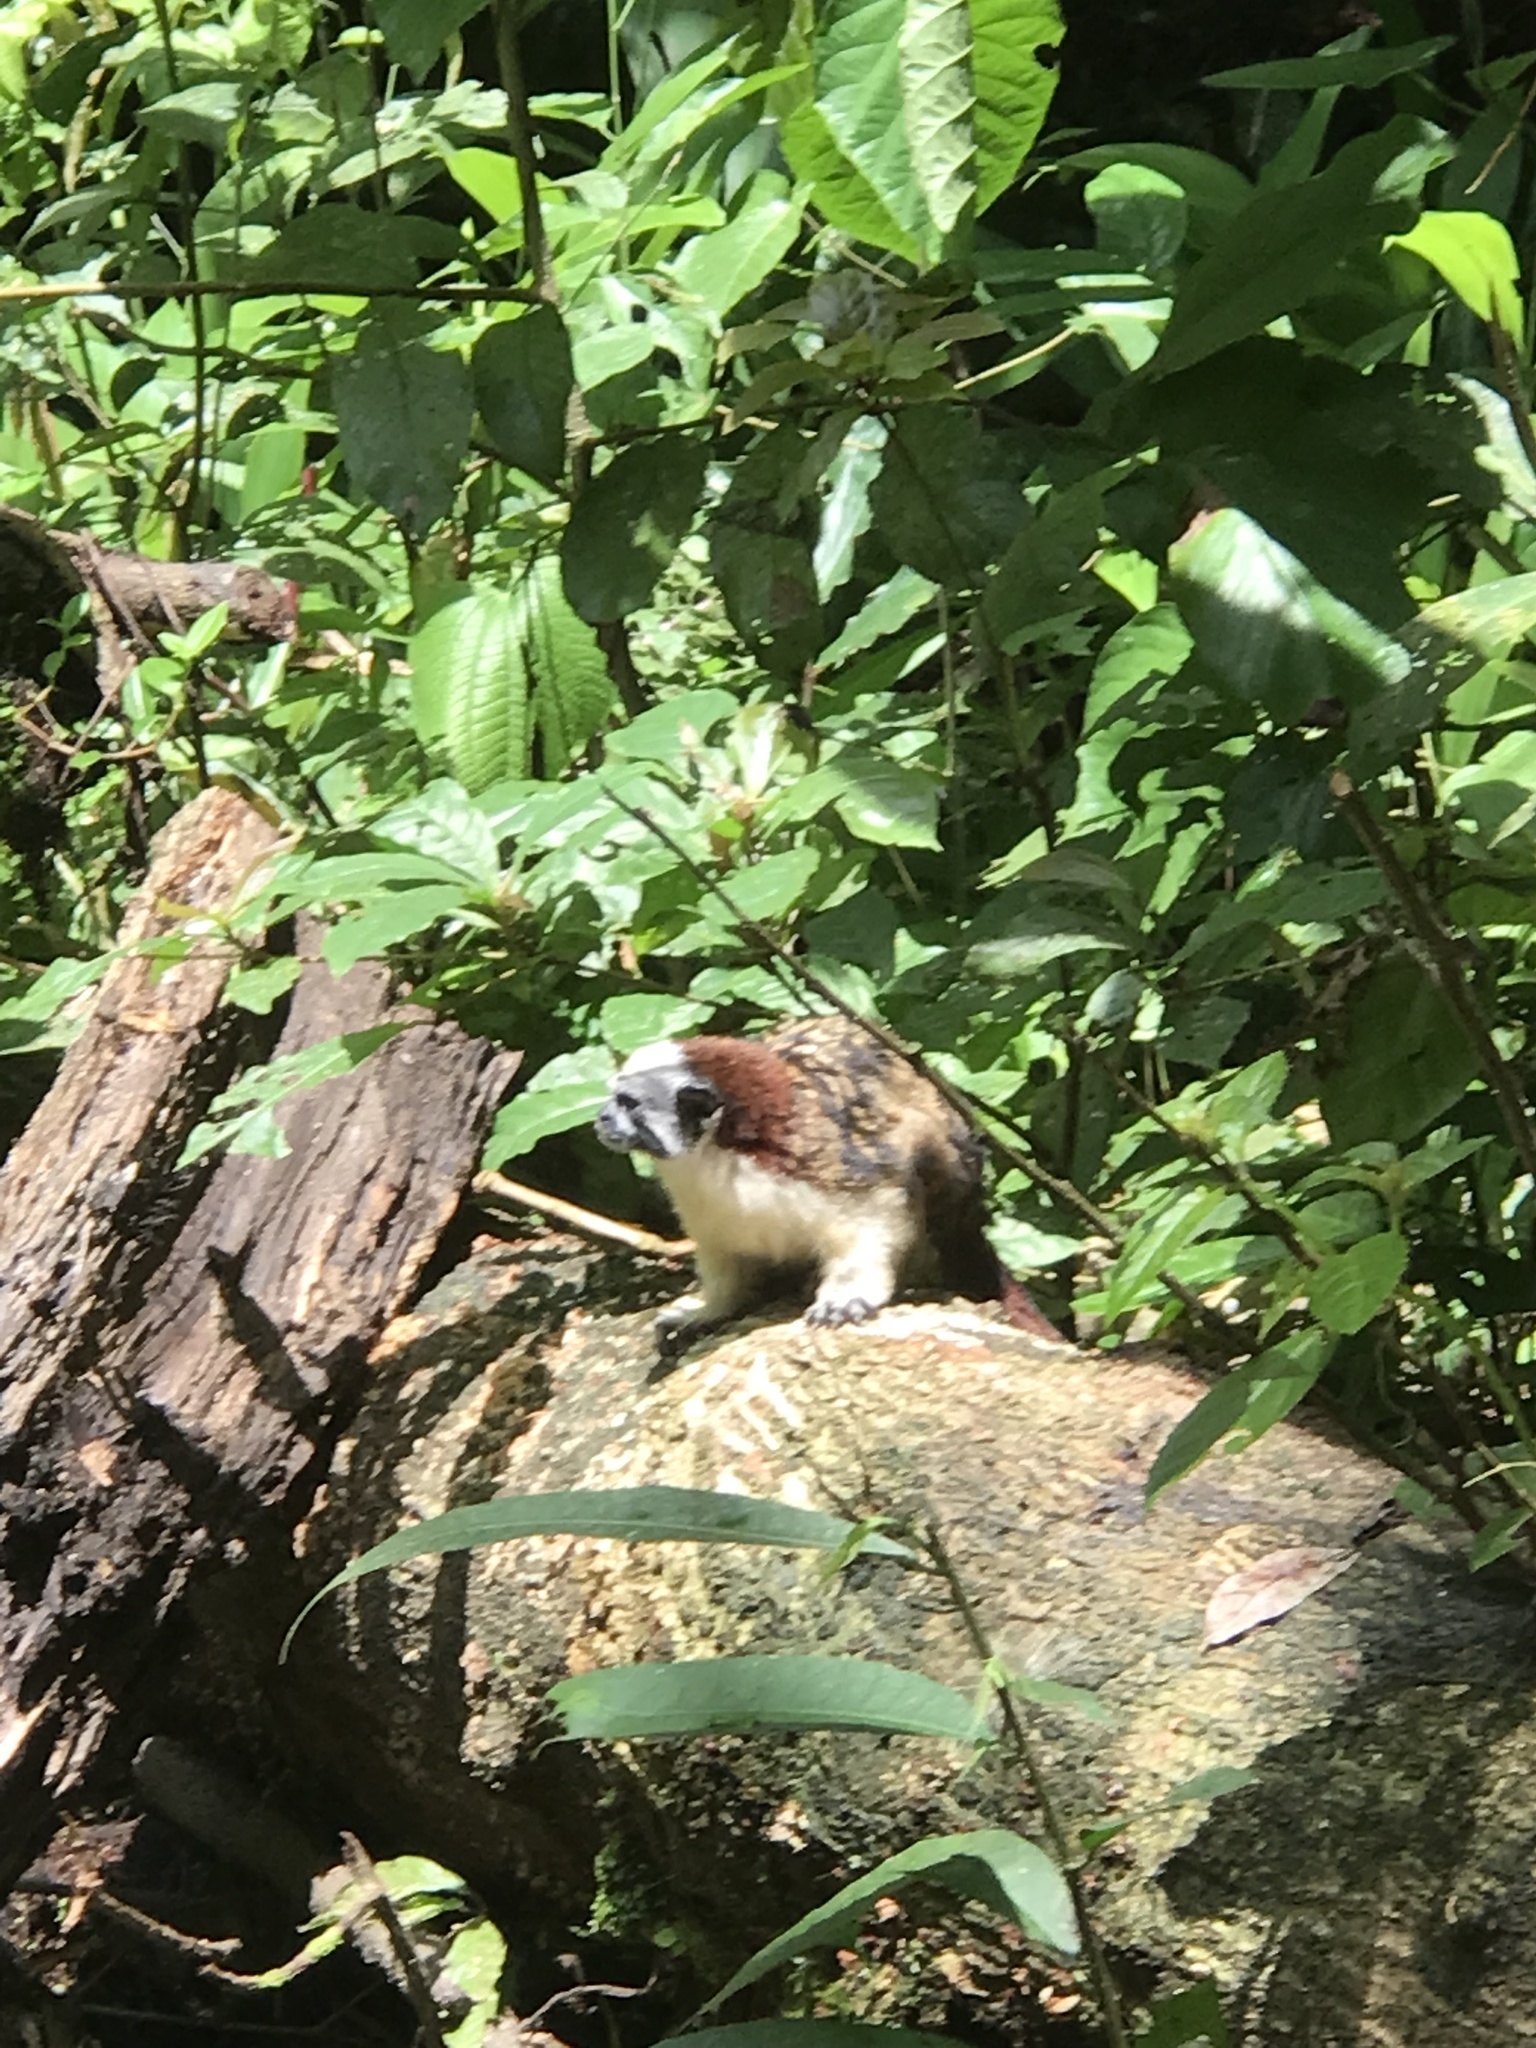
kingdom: Animalia
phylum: Chordata
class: Mammalia
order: Primates
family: Callitrichidae
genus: Saguinus
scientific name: Saguinus geoffroyi
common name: Geoffroy s tamarin
